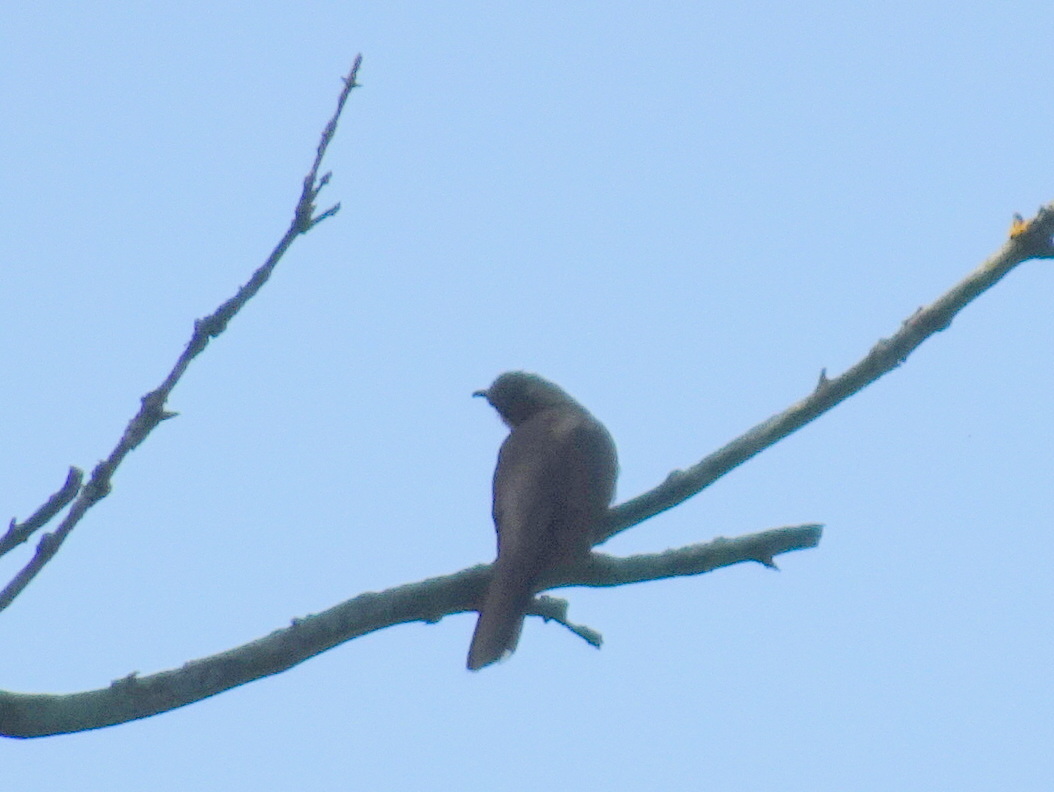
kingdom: Animalia
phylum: Chordata
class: Aves
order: Cuculiformes
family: Cuculidae
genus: Coccyzus
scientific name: Coccyzus americanus
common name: Yellow-billed cuckoo
